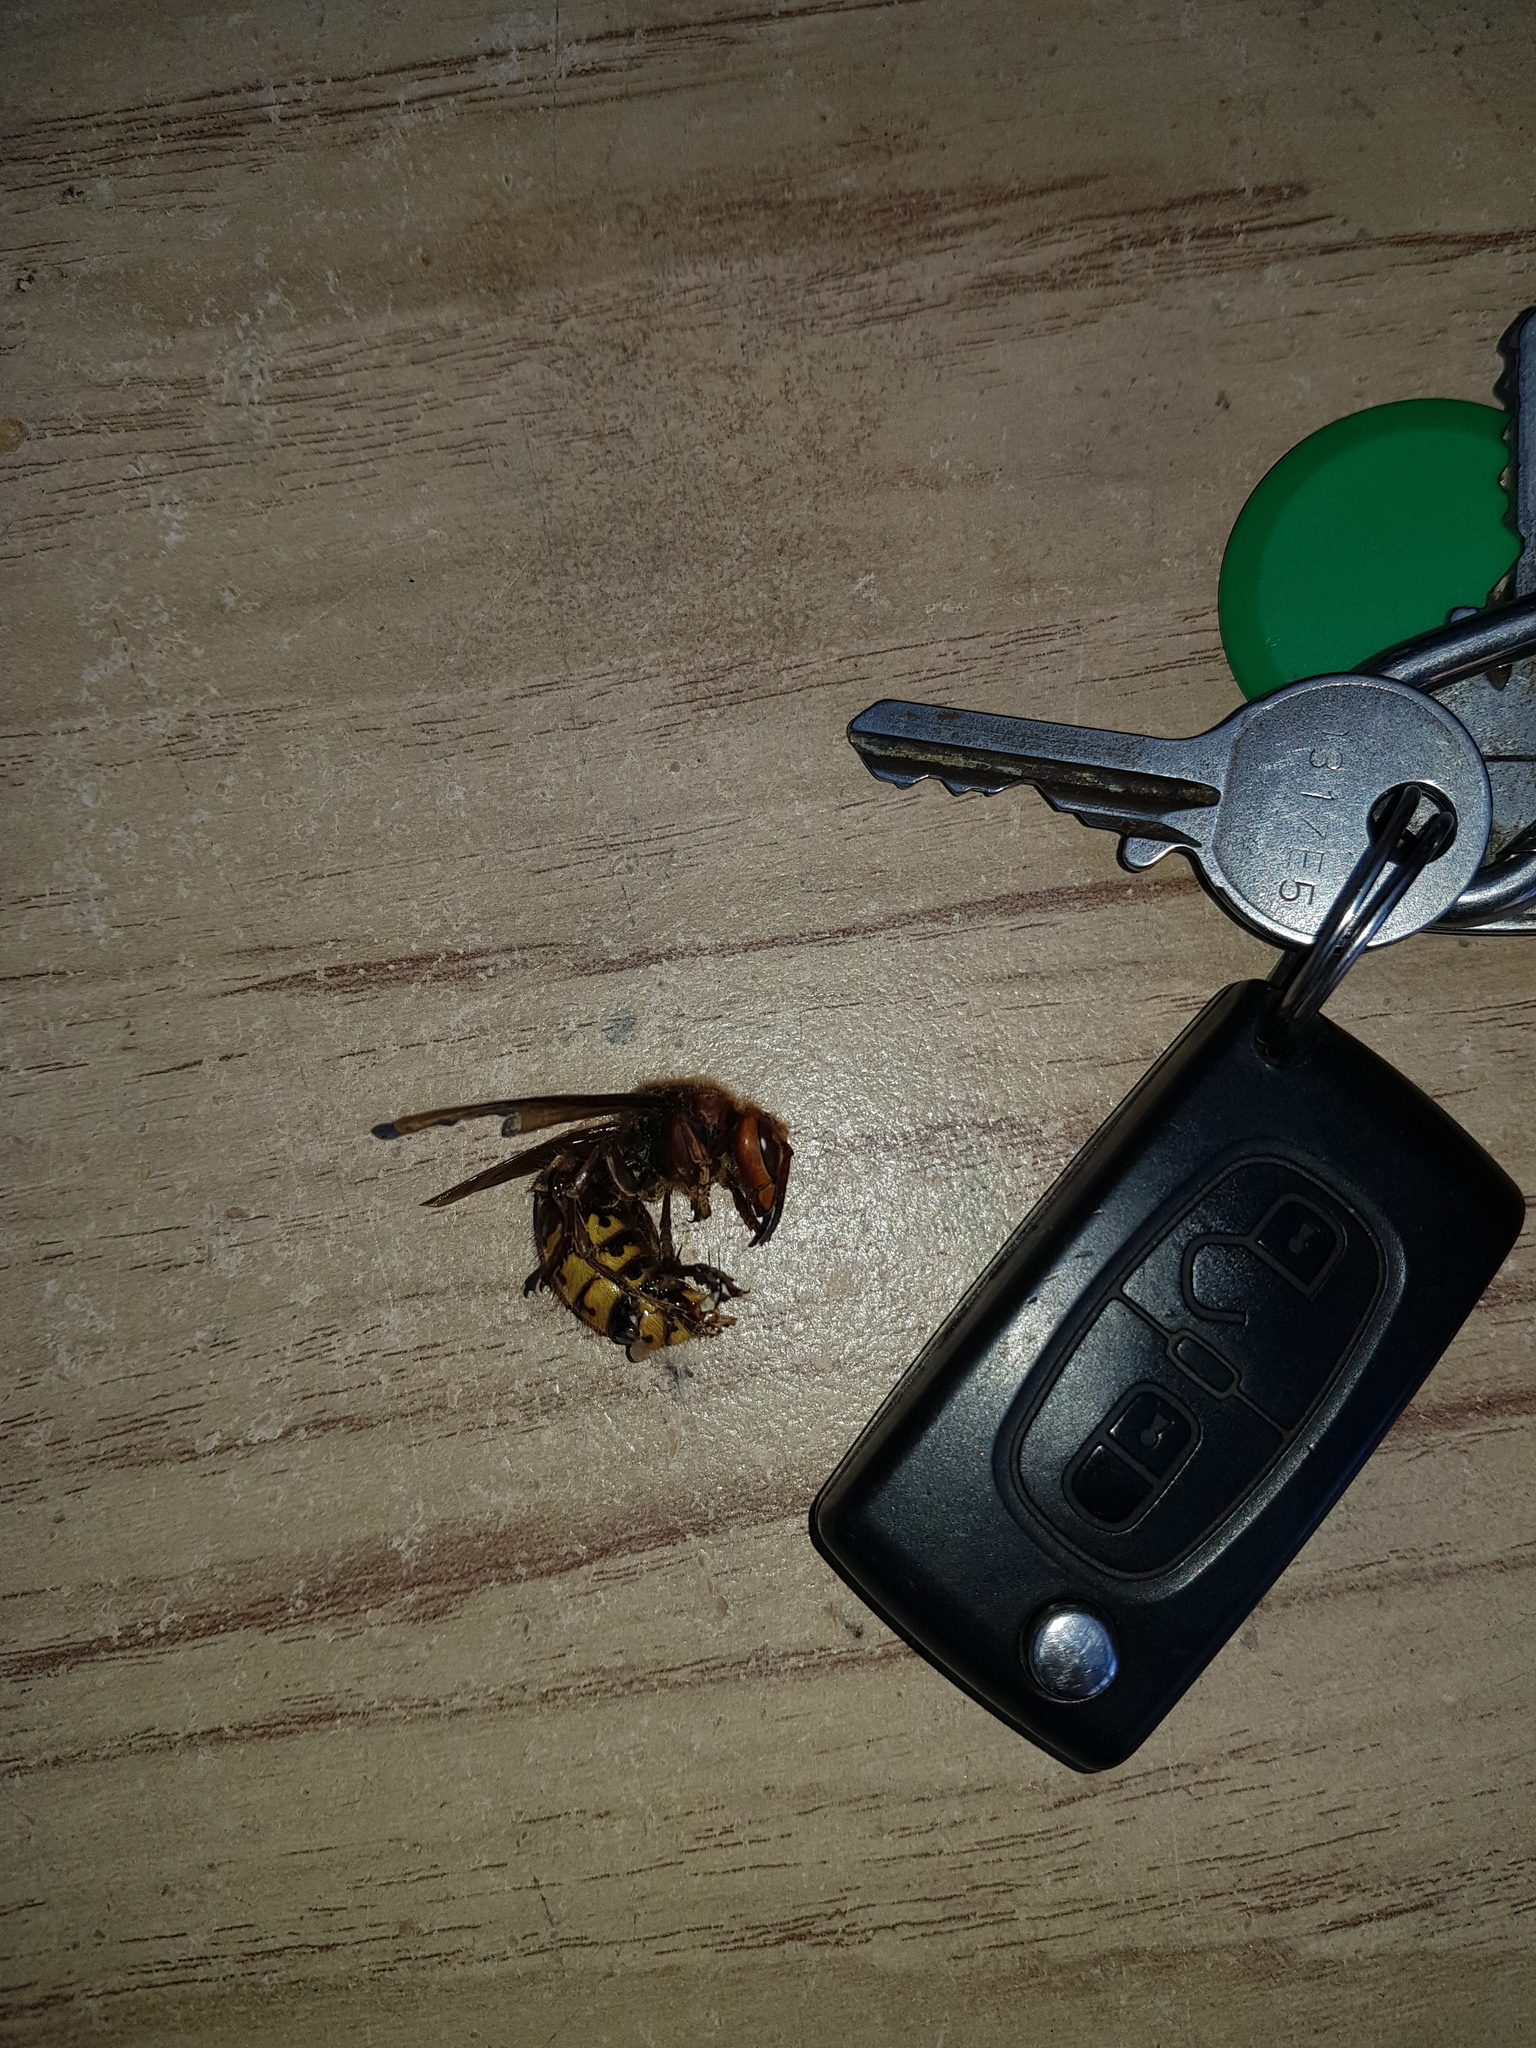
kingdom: Animalia
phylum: Arthropoda
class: Insecta
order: Hymenoptera
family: Vespidae
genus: Vespa
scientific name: Vespa crabro
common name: Hornet
